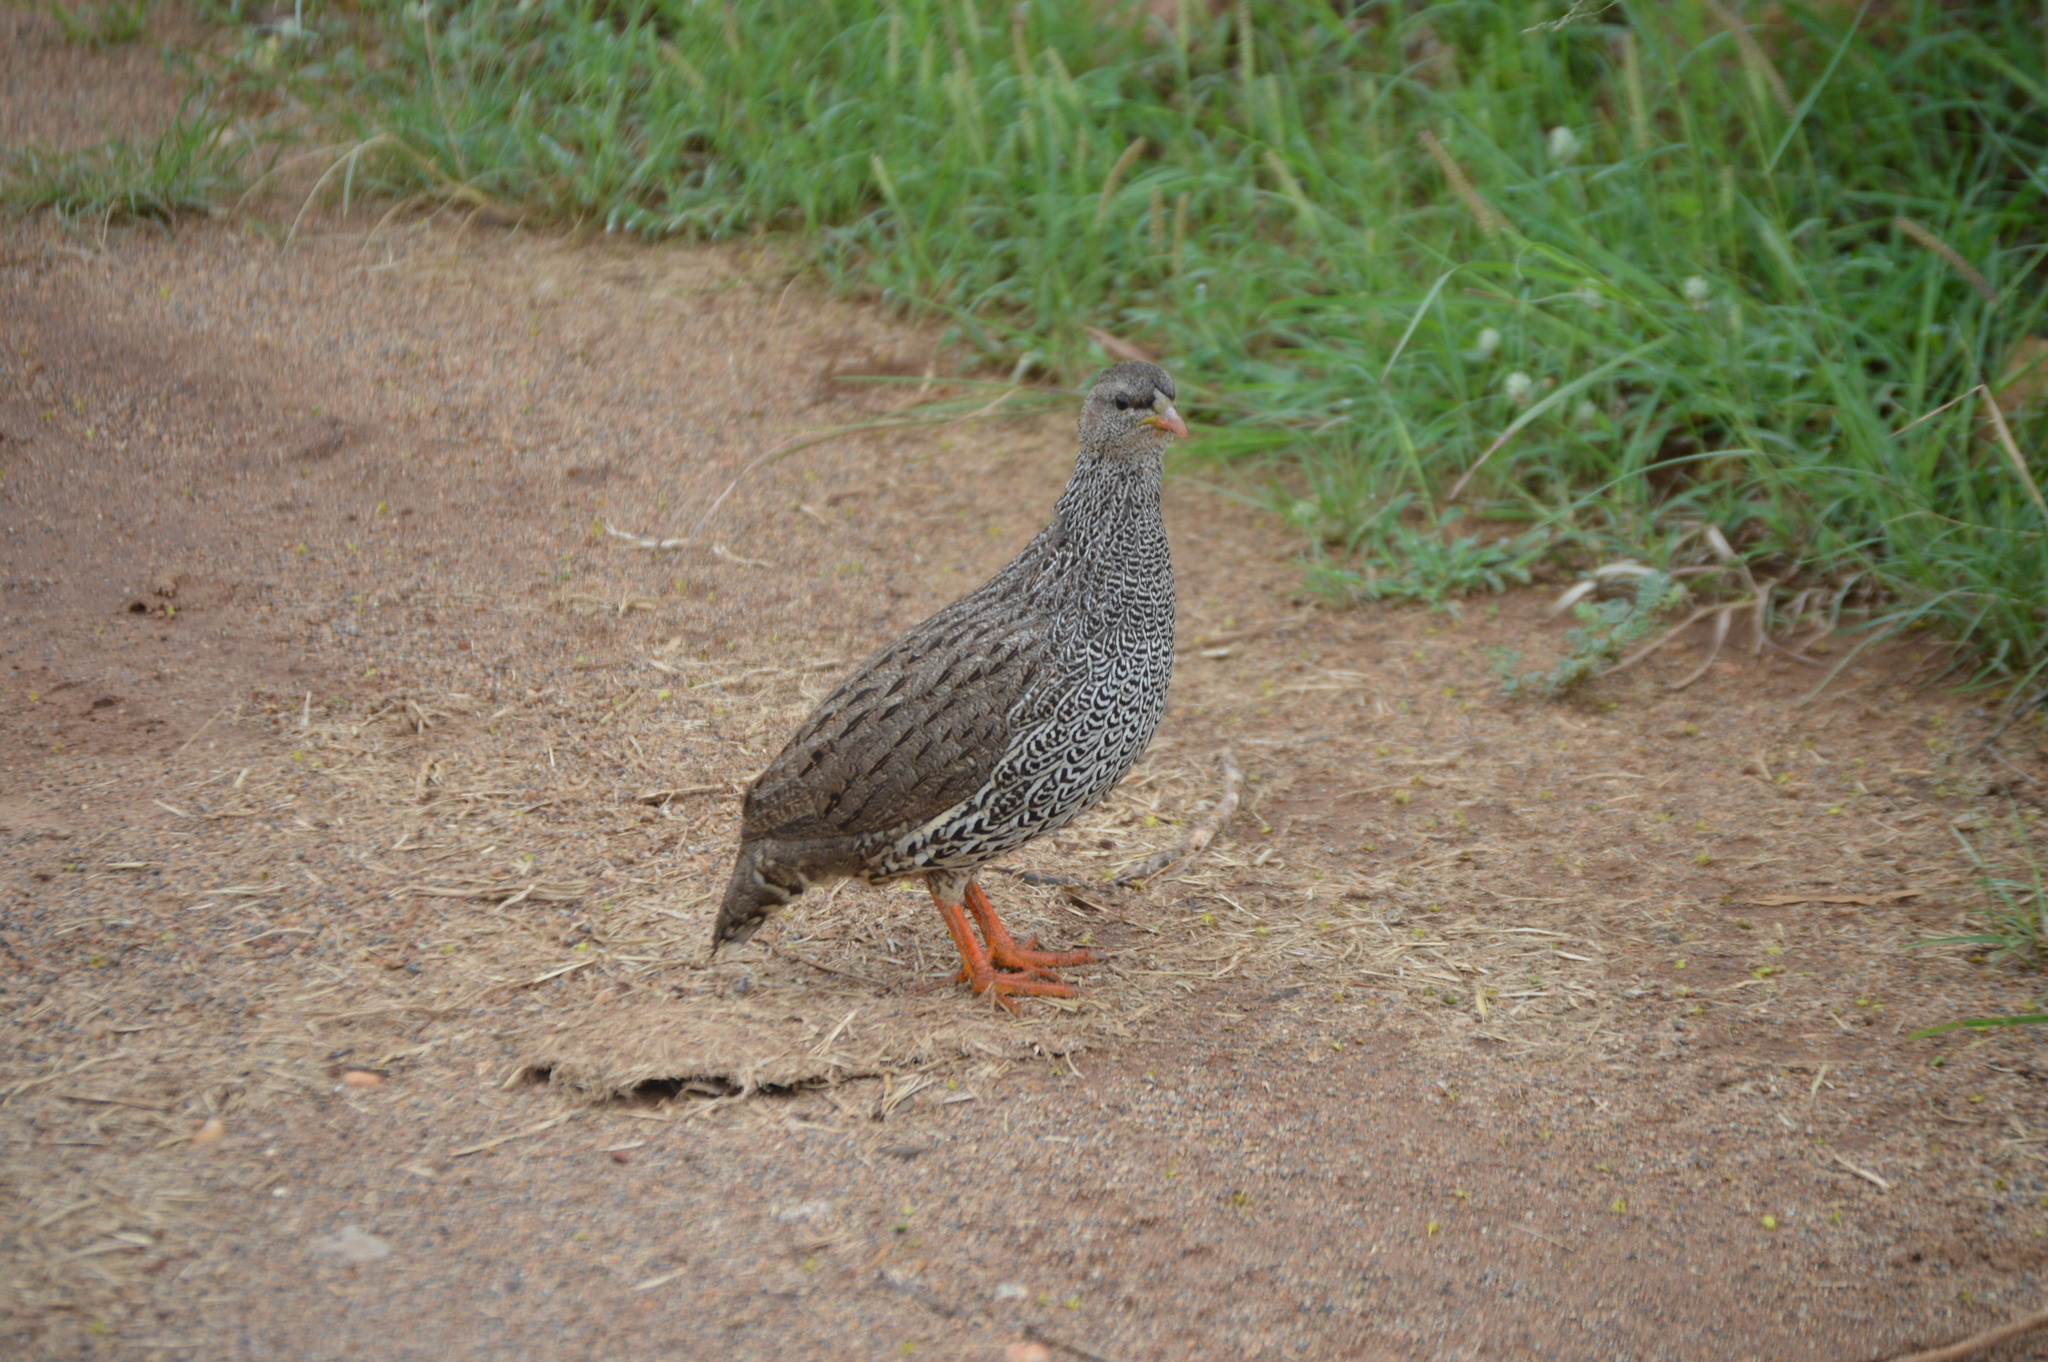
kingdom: Animalia
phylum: Chordata
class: Aves
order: Galliformes
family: Phasianidae
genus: Pternistis
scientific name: Pternistis natalensis
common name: Natal spurfowl
